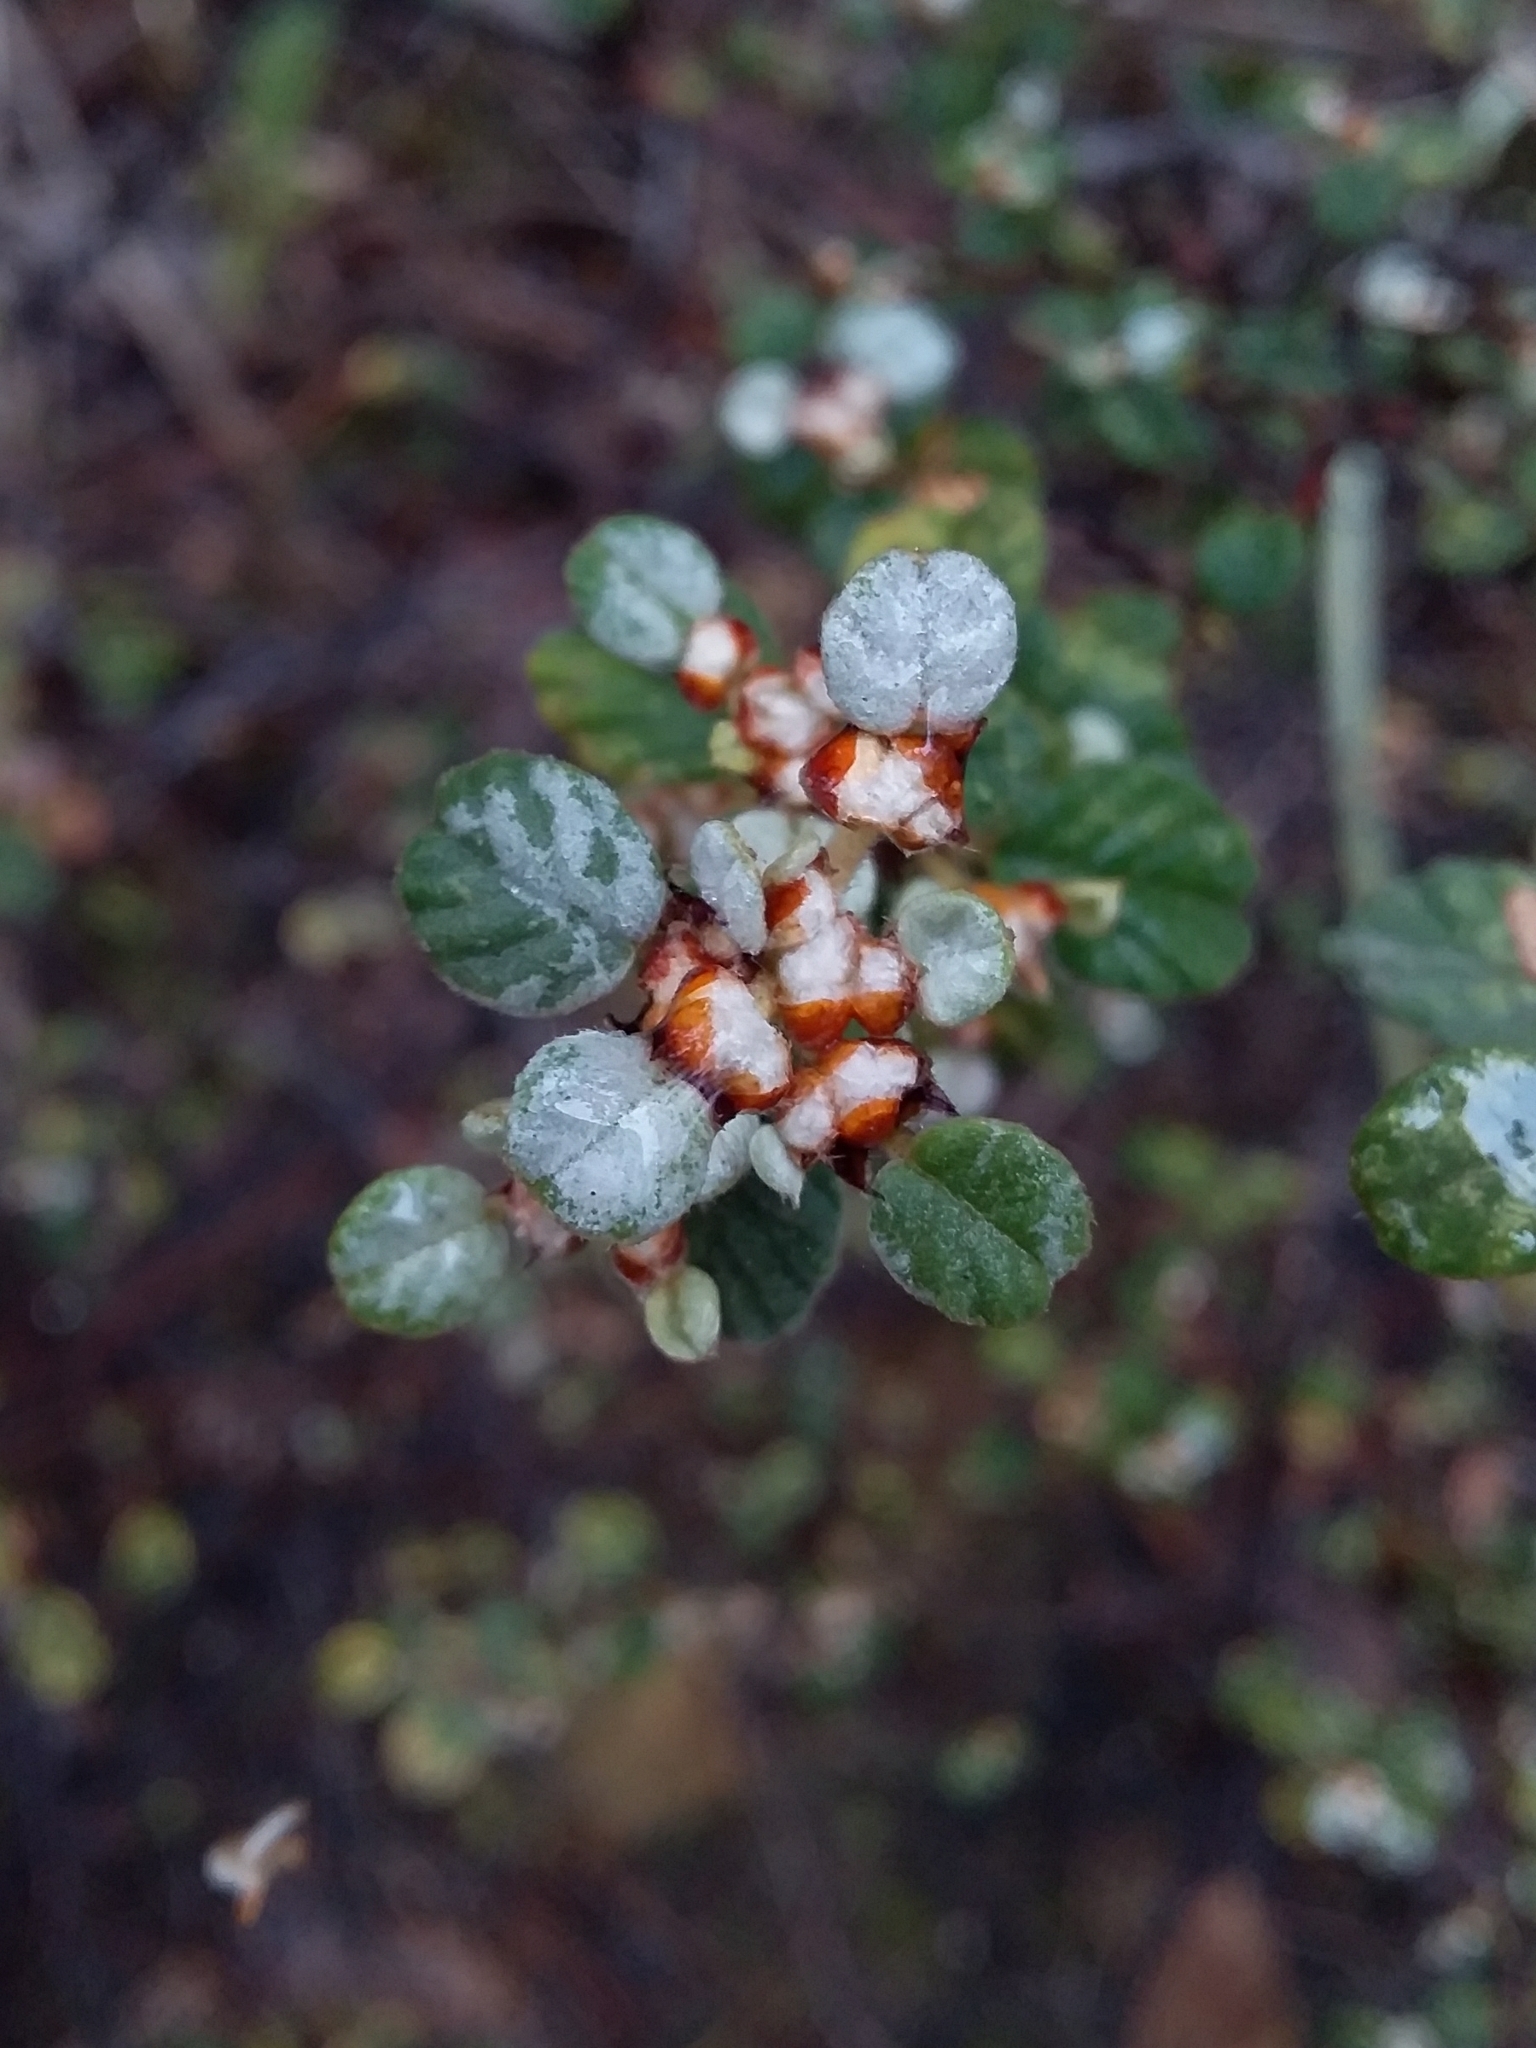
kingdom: Plantae
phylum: Tracheophyta
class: Magnoliopsida
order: Rosales
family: Rhamnaceae
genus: Spyridium
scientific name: Spyridium parvifolium
